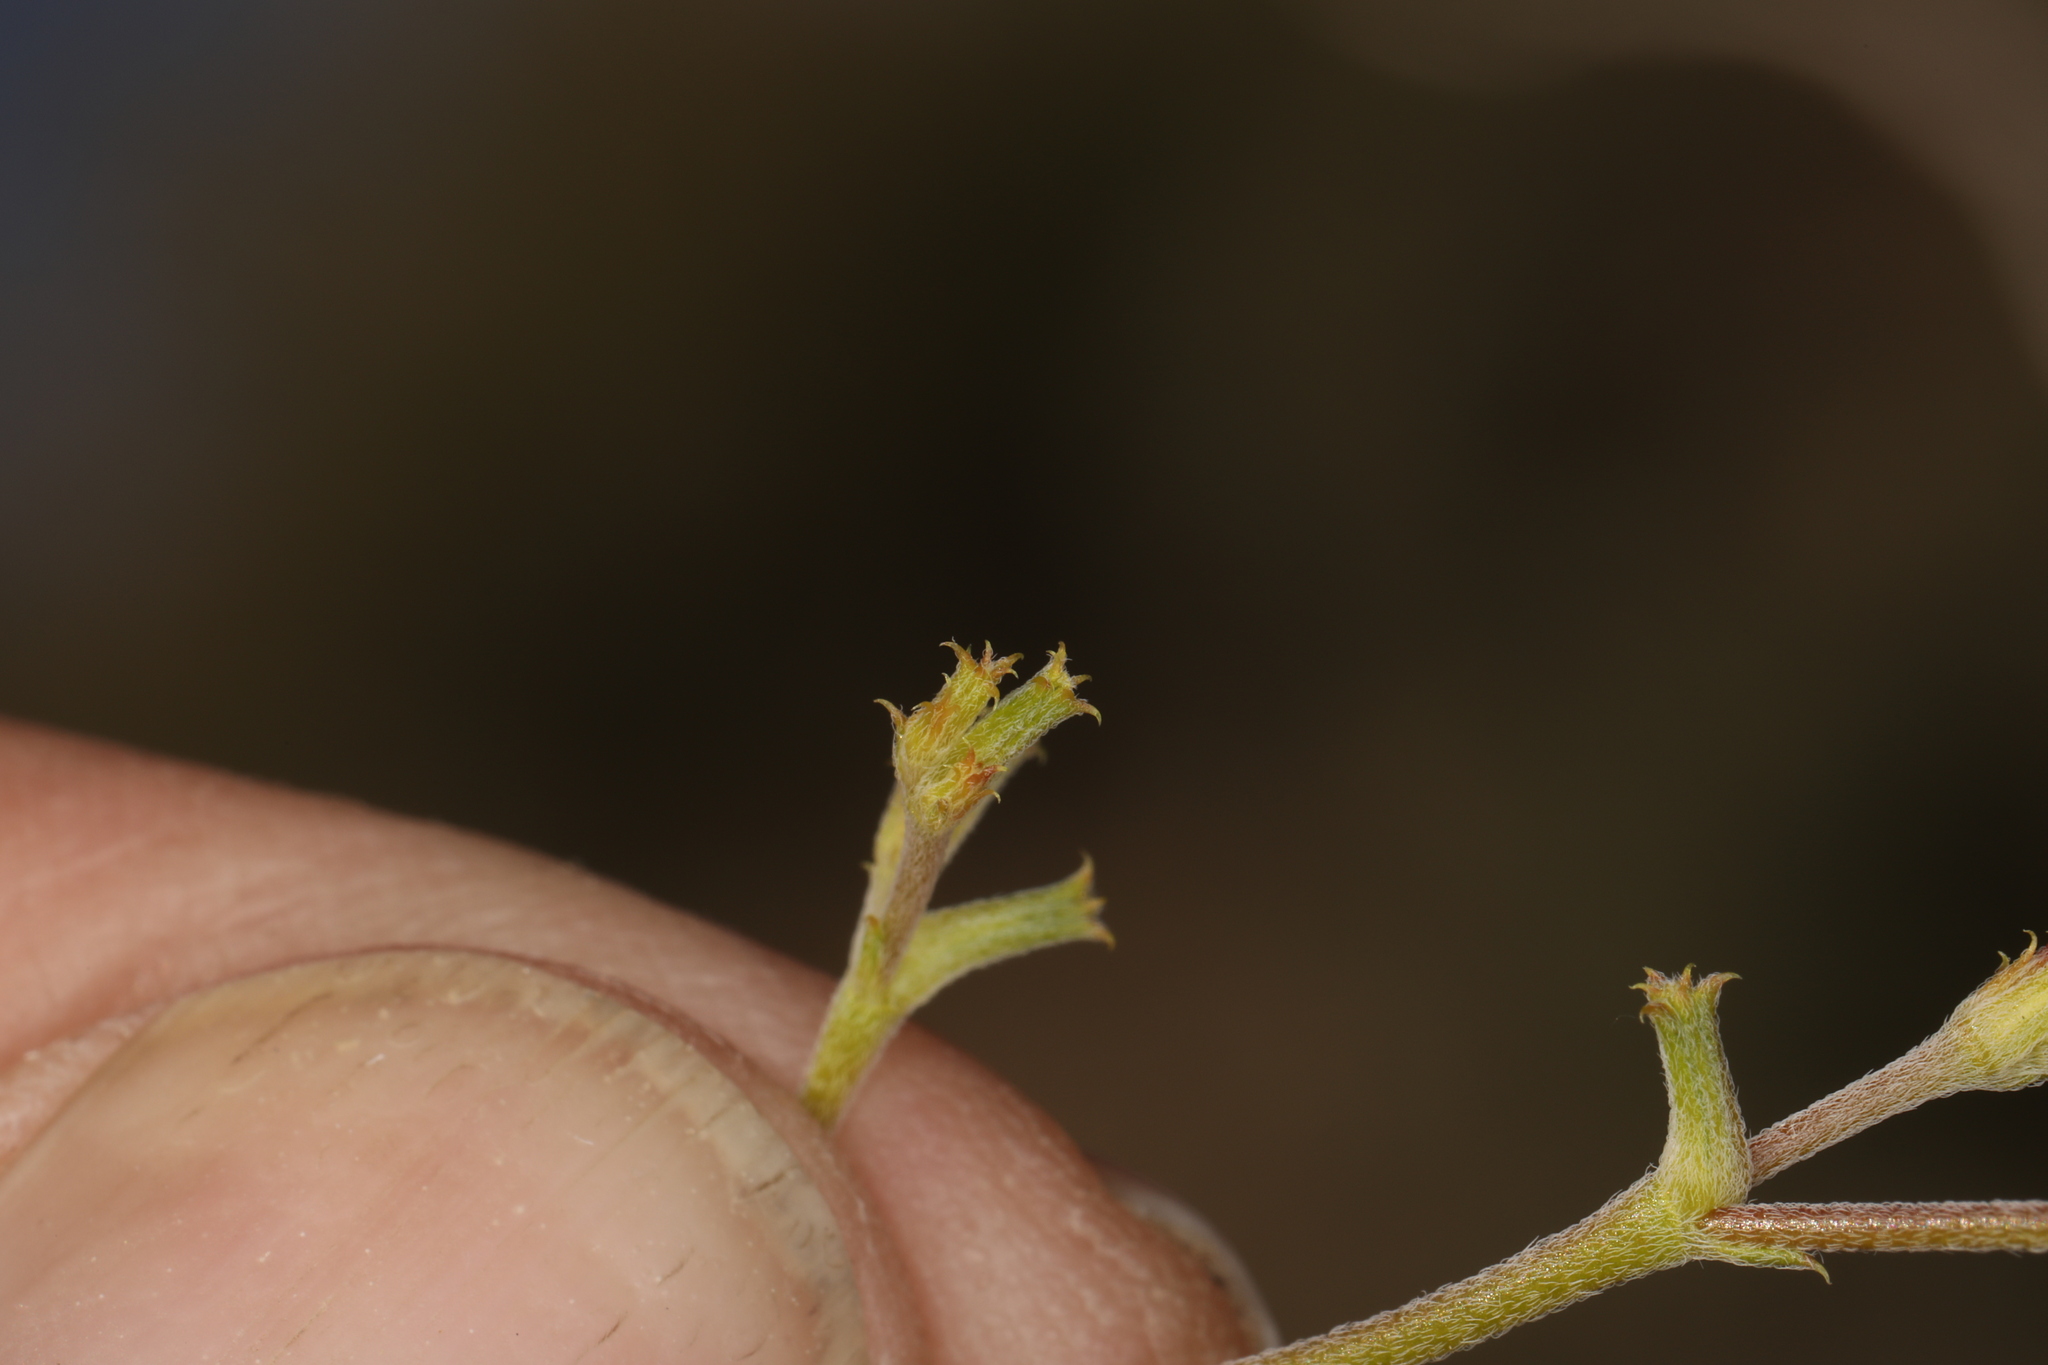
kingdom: Plantae
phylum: Tracheophyta
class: Magnoliopsida
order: Caryophyllales
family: Polygonaceae
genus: Chorizanthe
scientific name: Chorizanthe brevicornu
